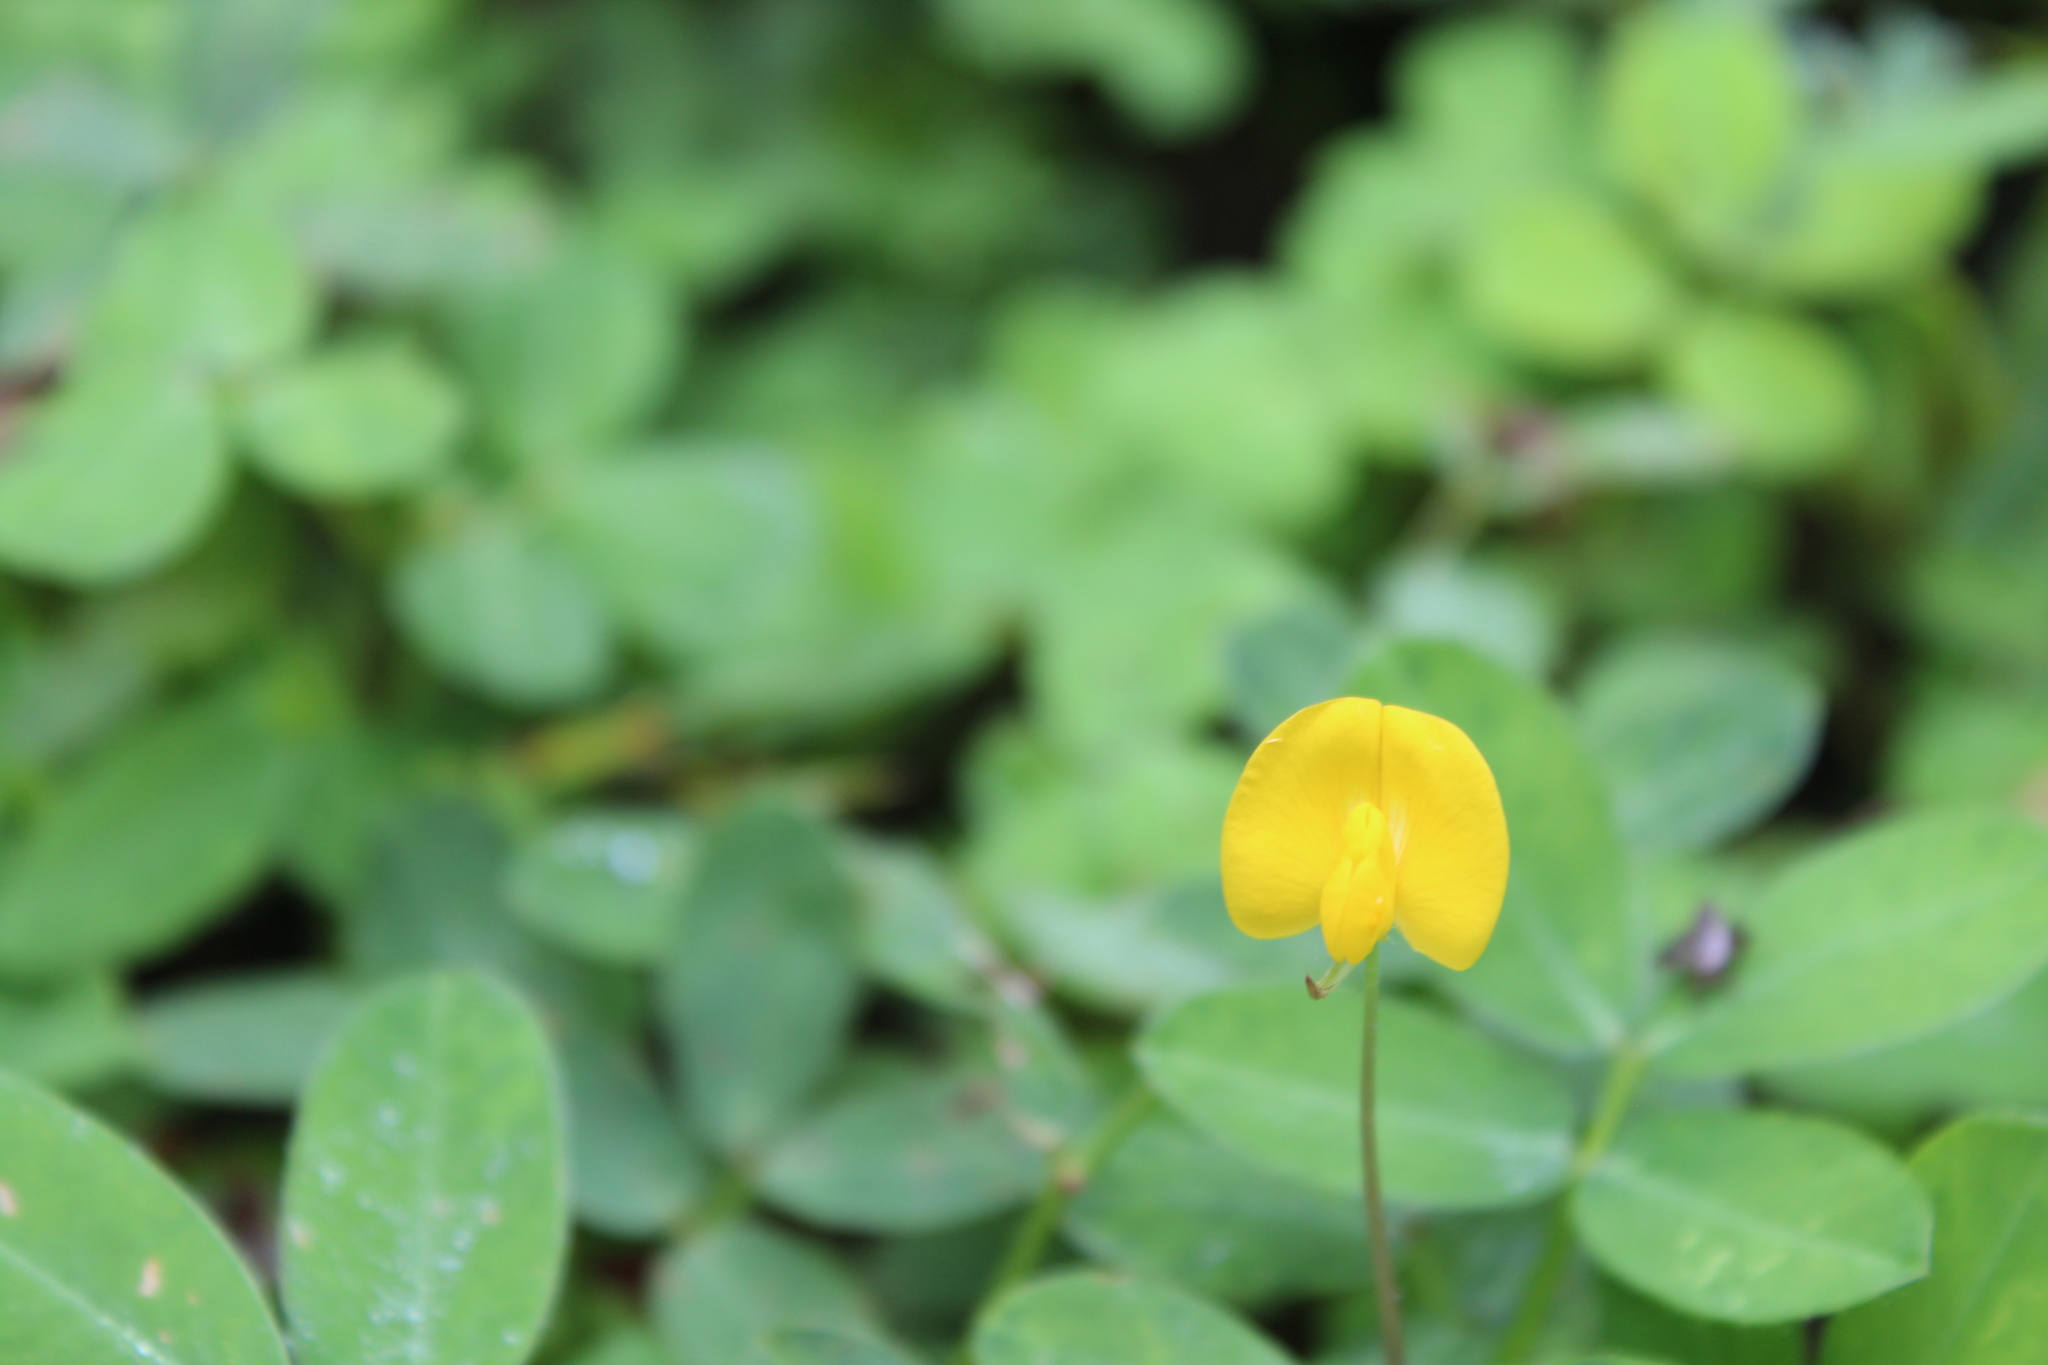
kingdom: Plantae
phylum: Tracheophyta
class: Magnoliopsida
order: Fabales
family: Fabaceae
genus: Arachis
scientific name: Arachis pintoi
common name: Pinto peanut
